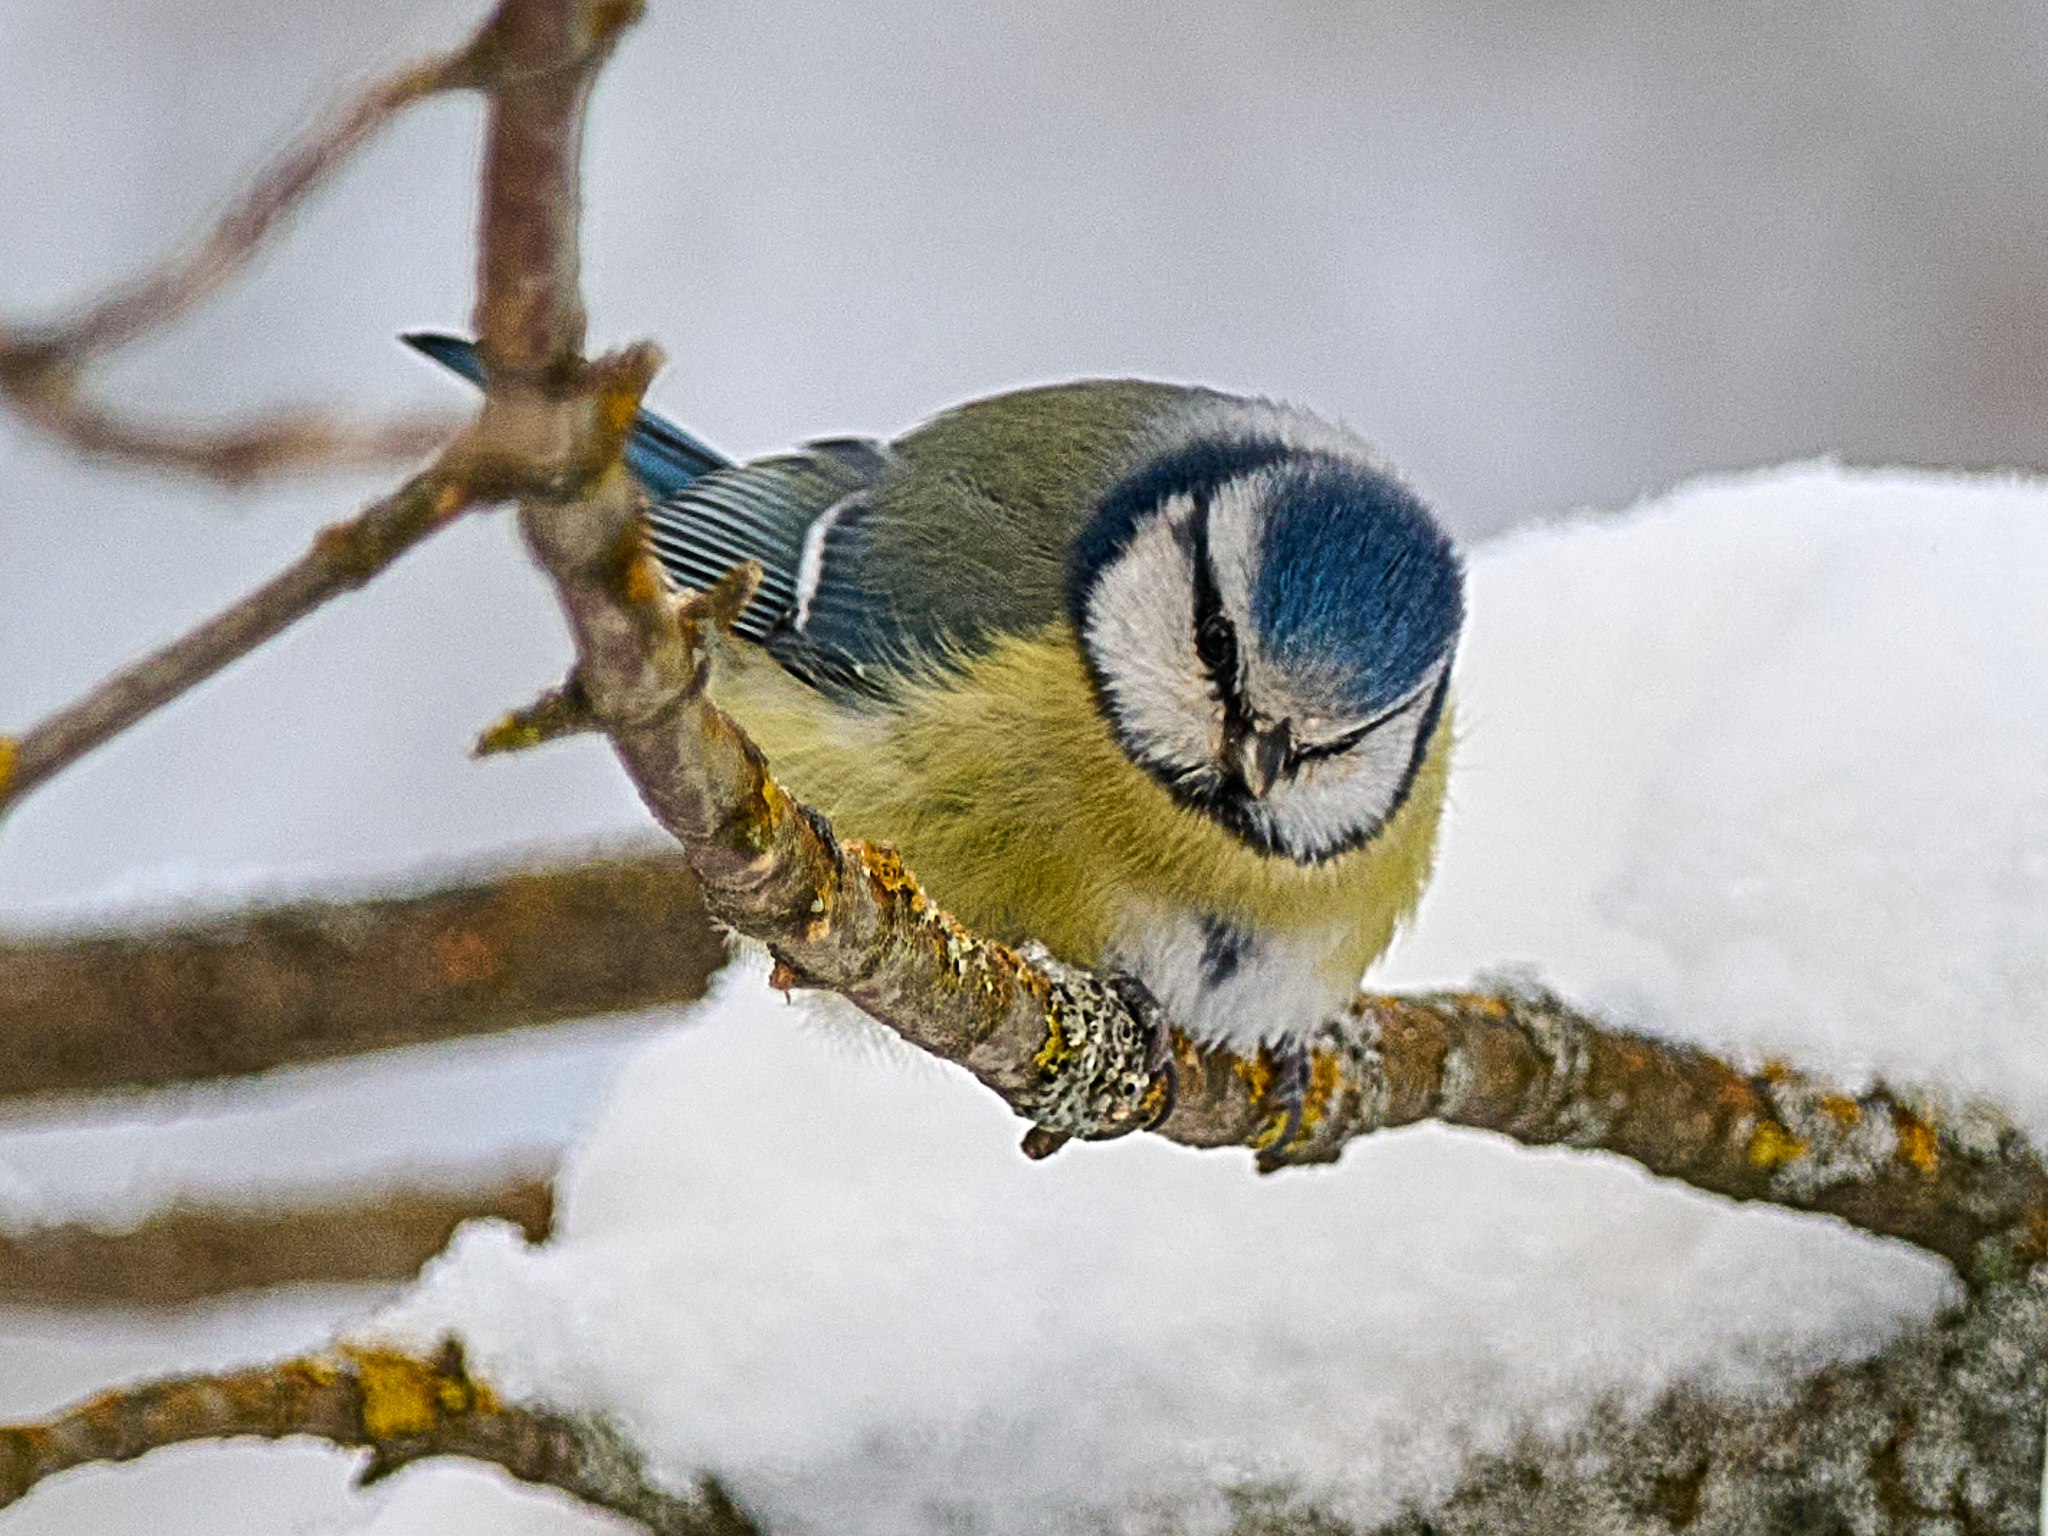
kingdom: Animalia
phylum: Chordata
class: Aves
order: Passeriformes
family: Paridae
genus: Cyanistes
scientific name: Cyanistes caeruleus
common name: Eurasian blue tit
